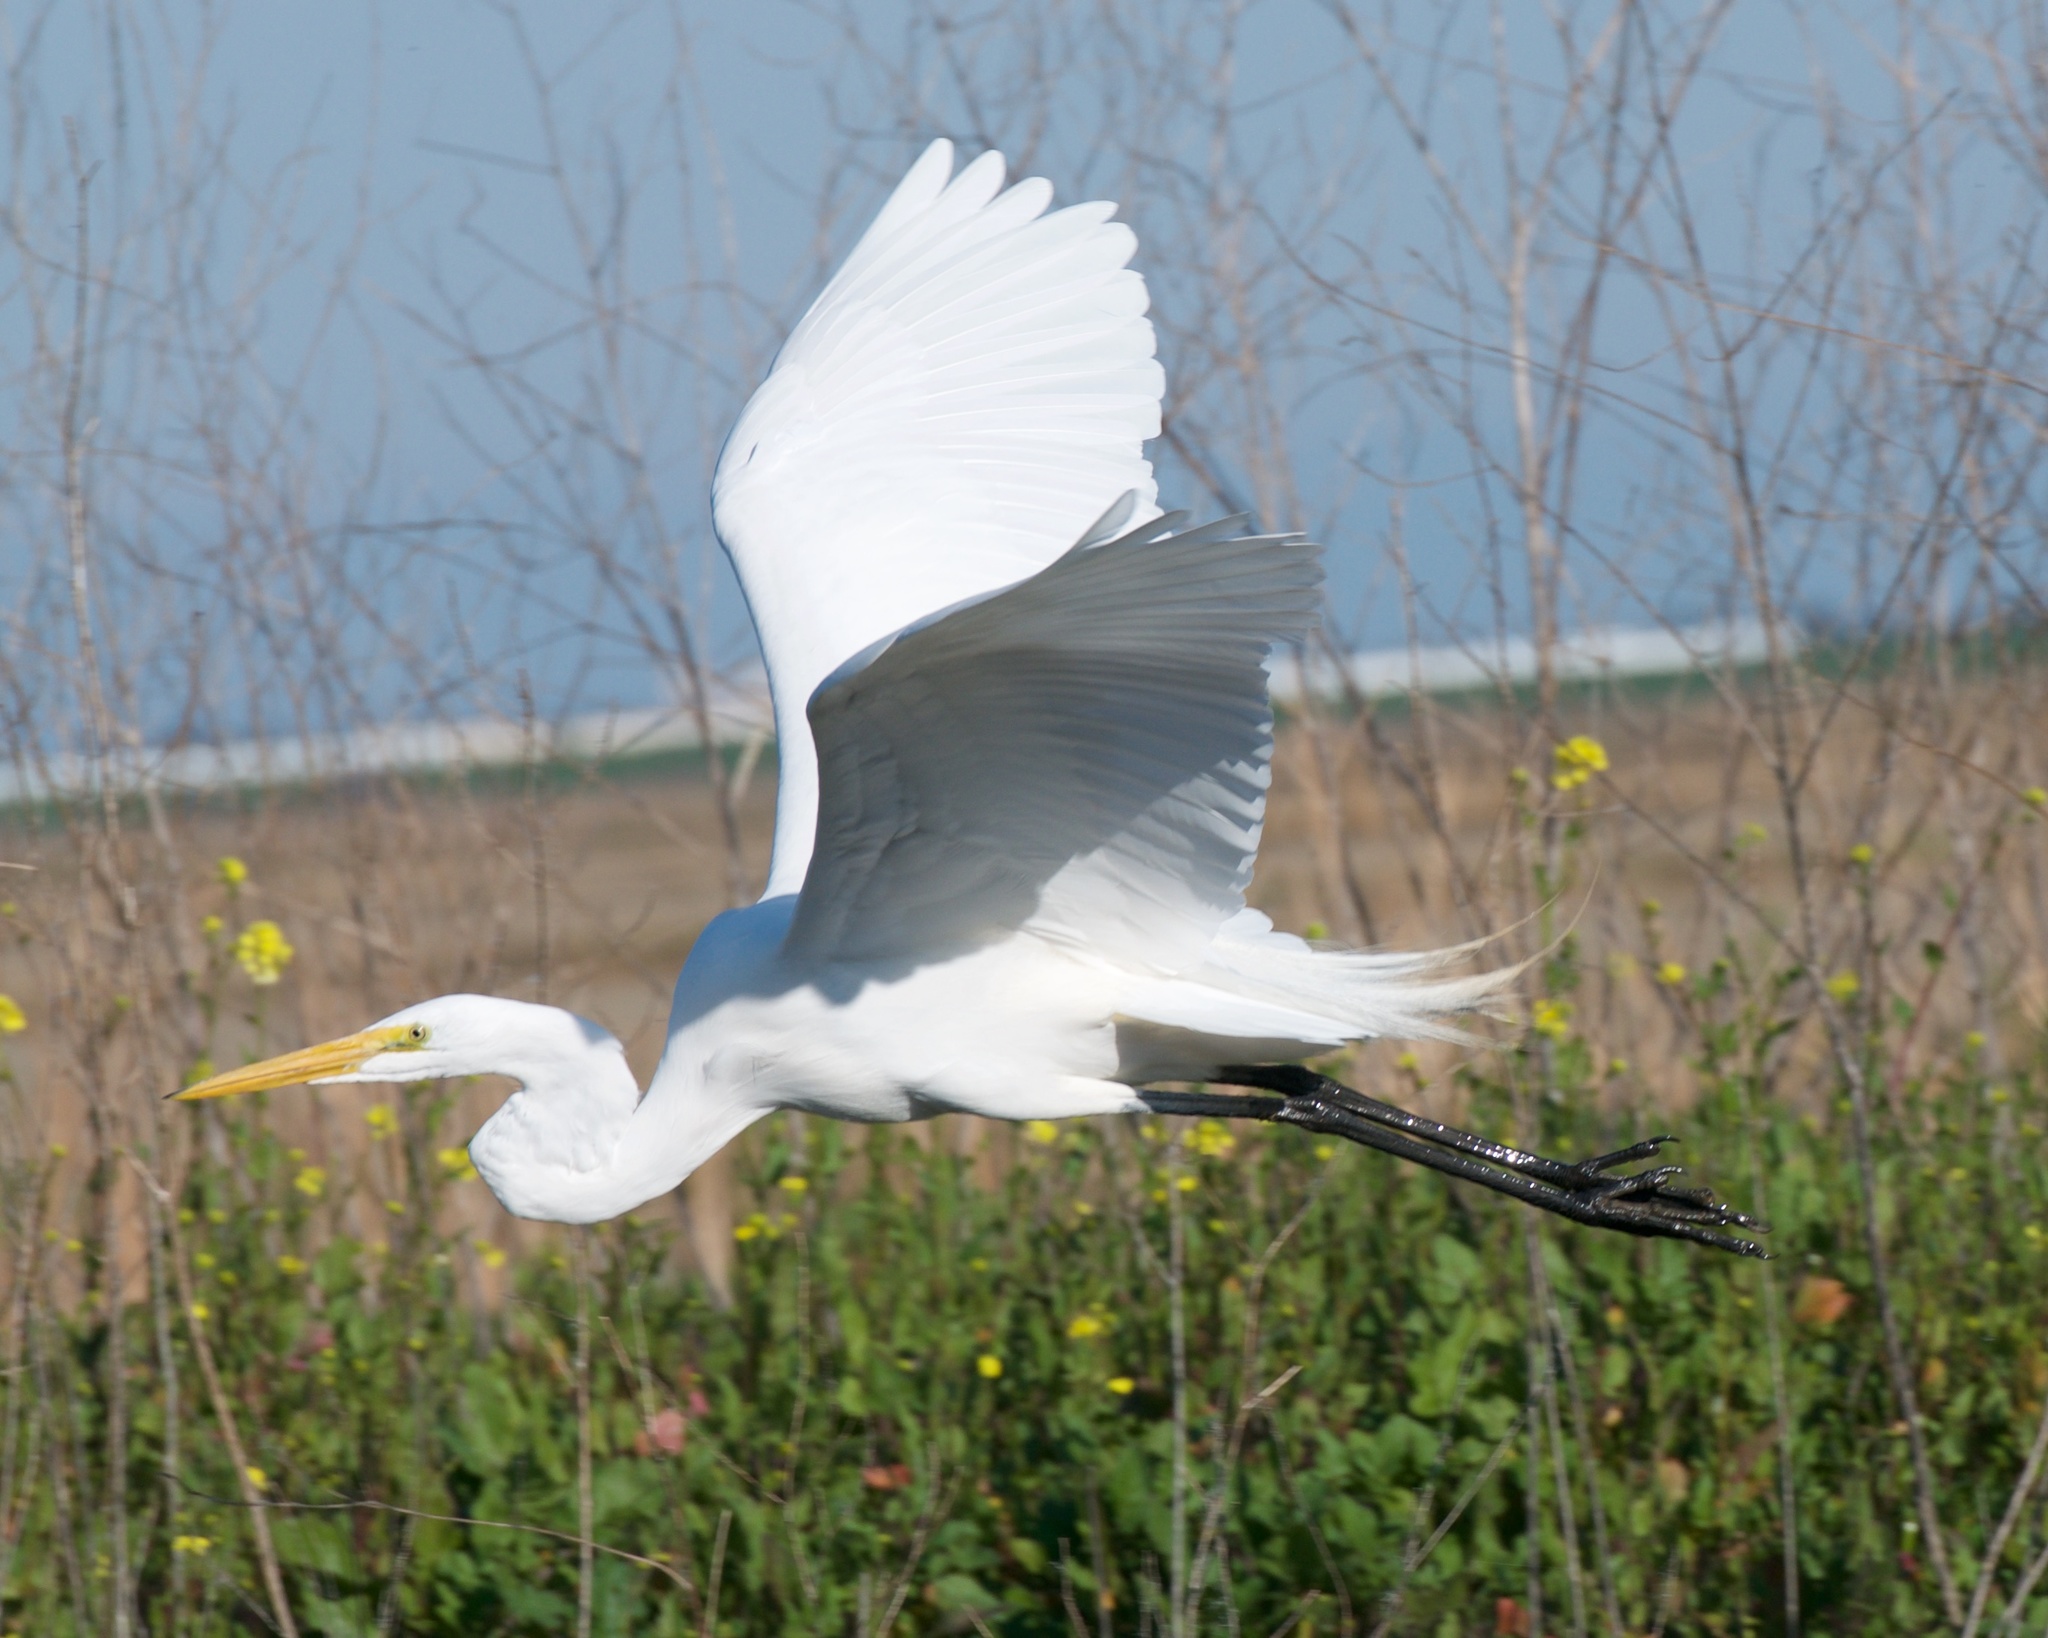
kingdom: Animalia
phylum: Chordata
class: Aves
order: Pelecaniformes
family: Ardeidae
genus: Ardea
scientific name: Ardea alba
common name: Great egret
